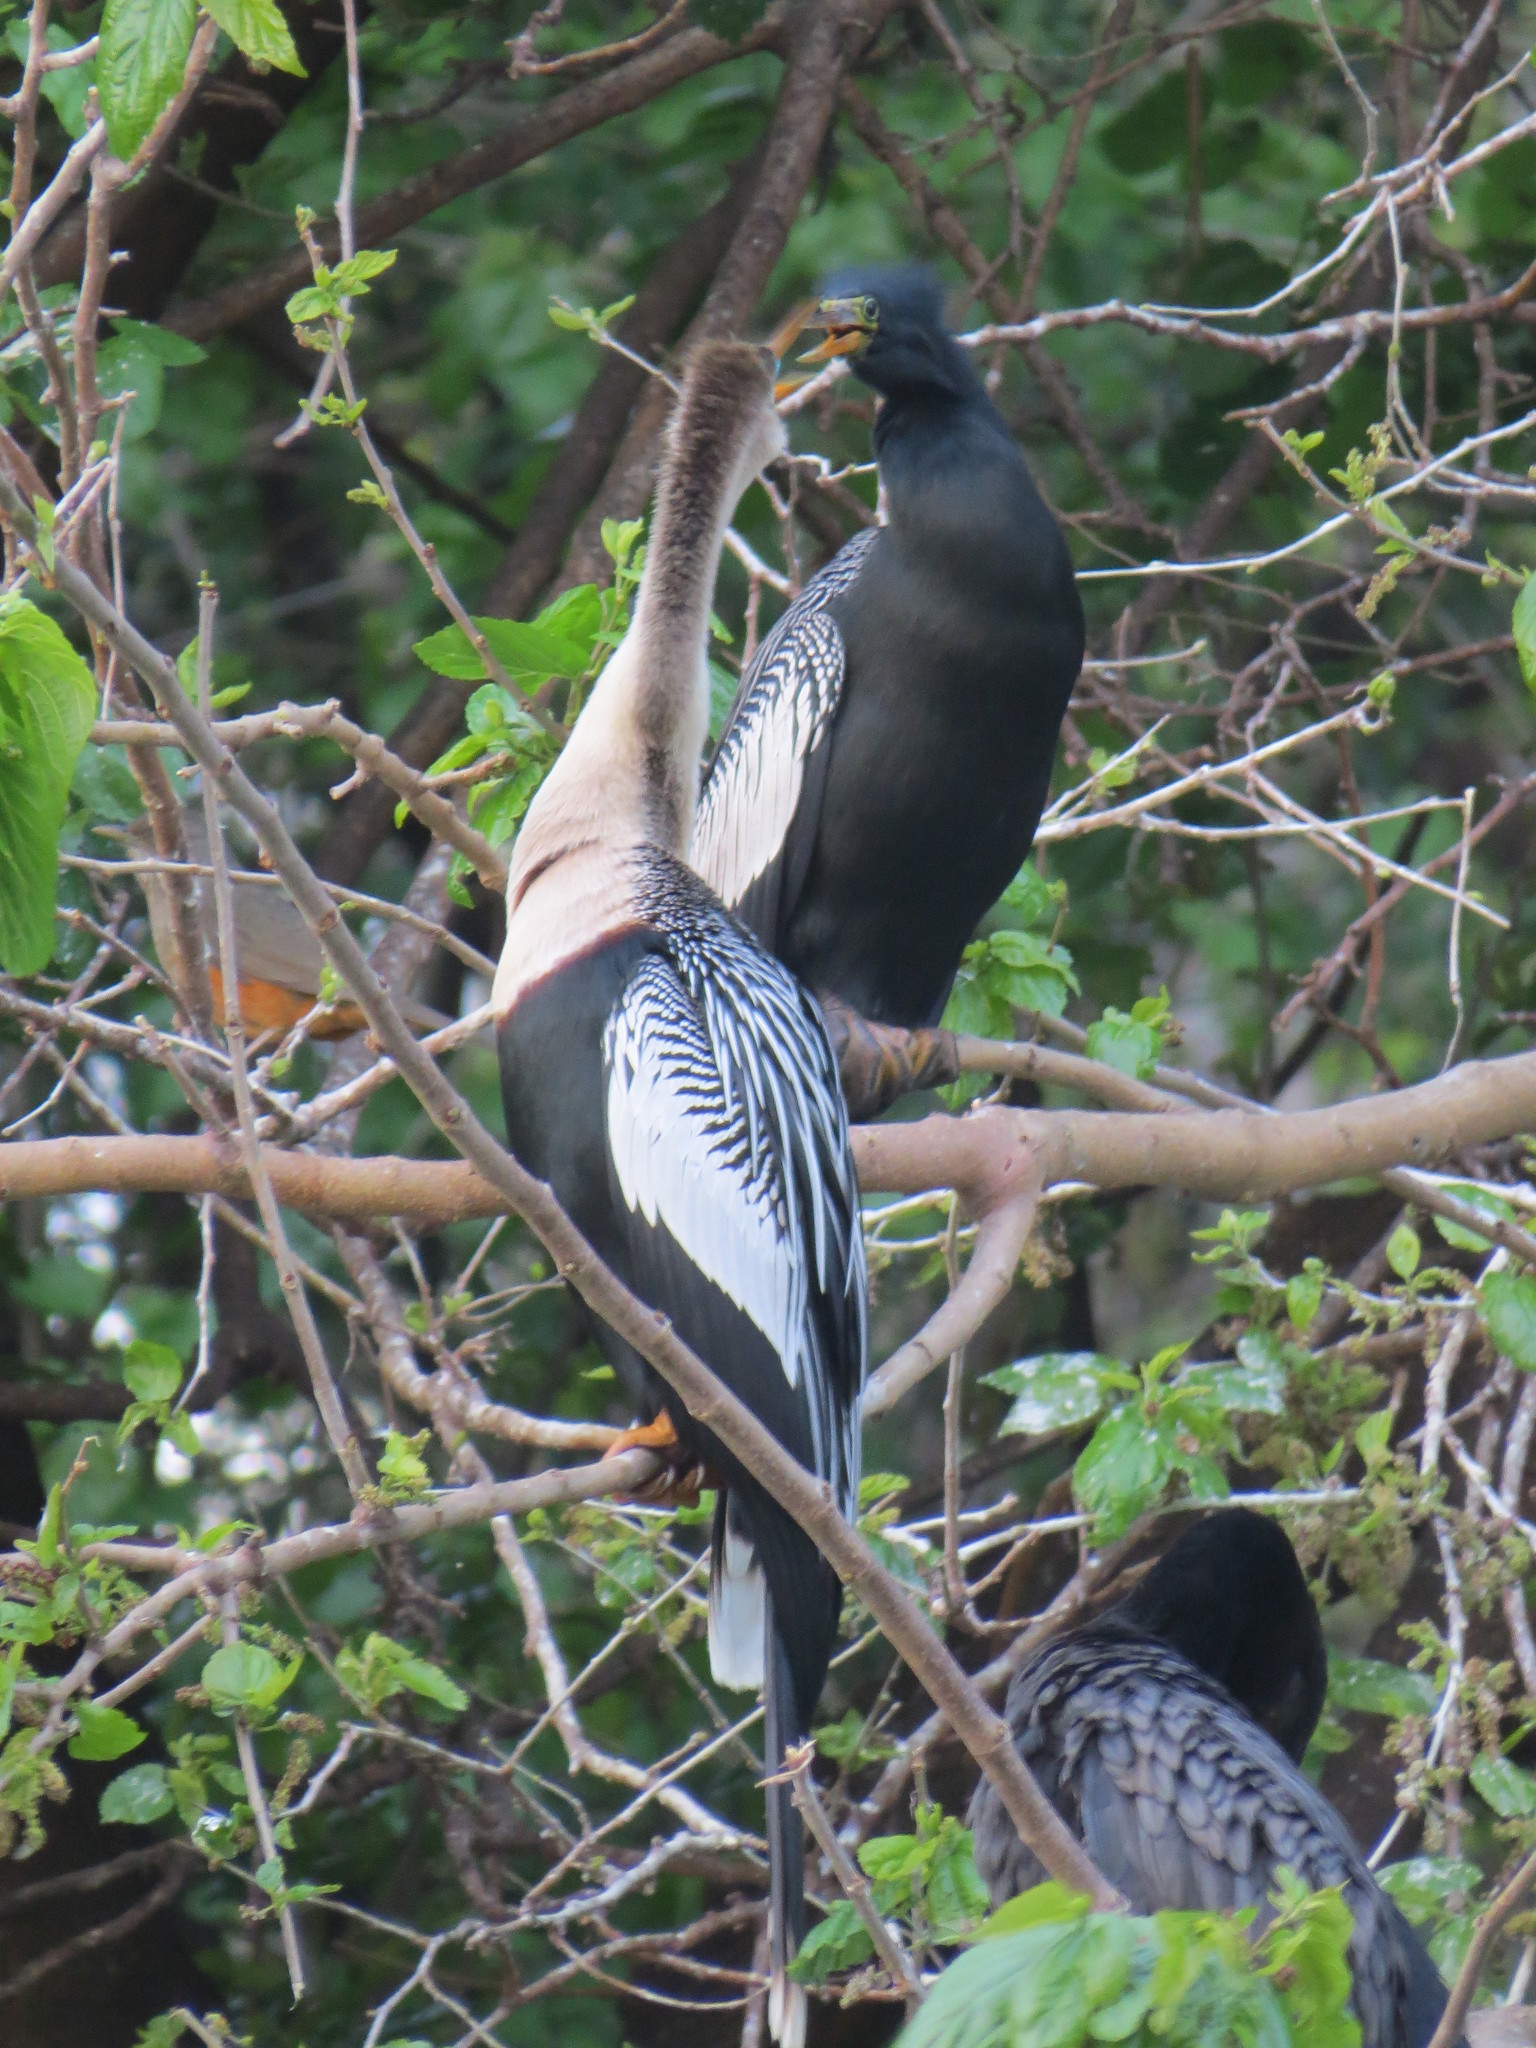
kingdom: Animalia
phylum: Chordata
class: Aves
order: Suliformes
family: Anhingidae
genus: Anhinga
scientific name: Anhinga anhinga
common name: Anhinga
